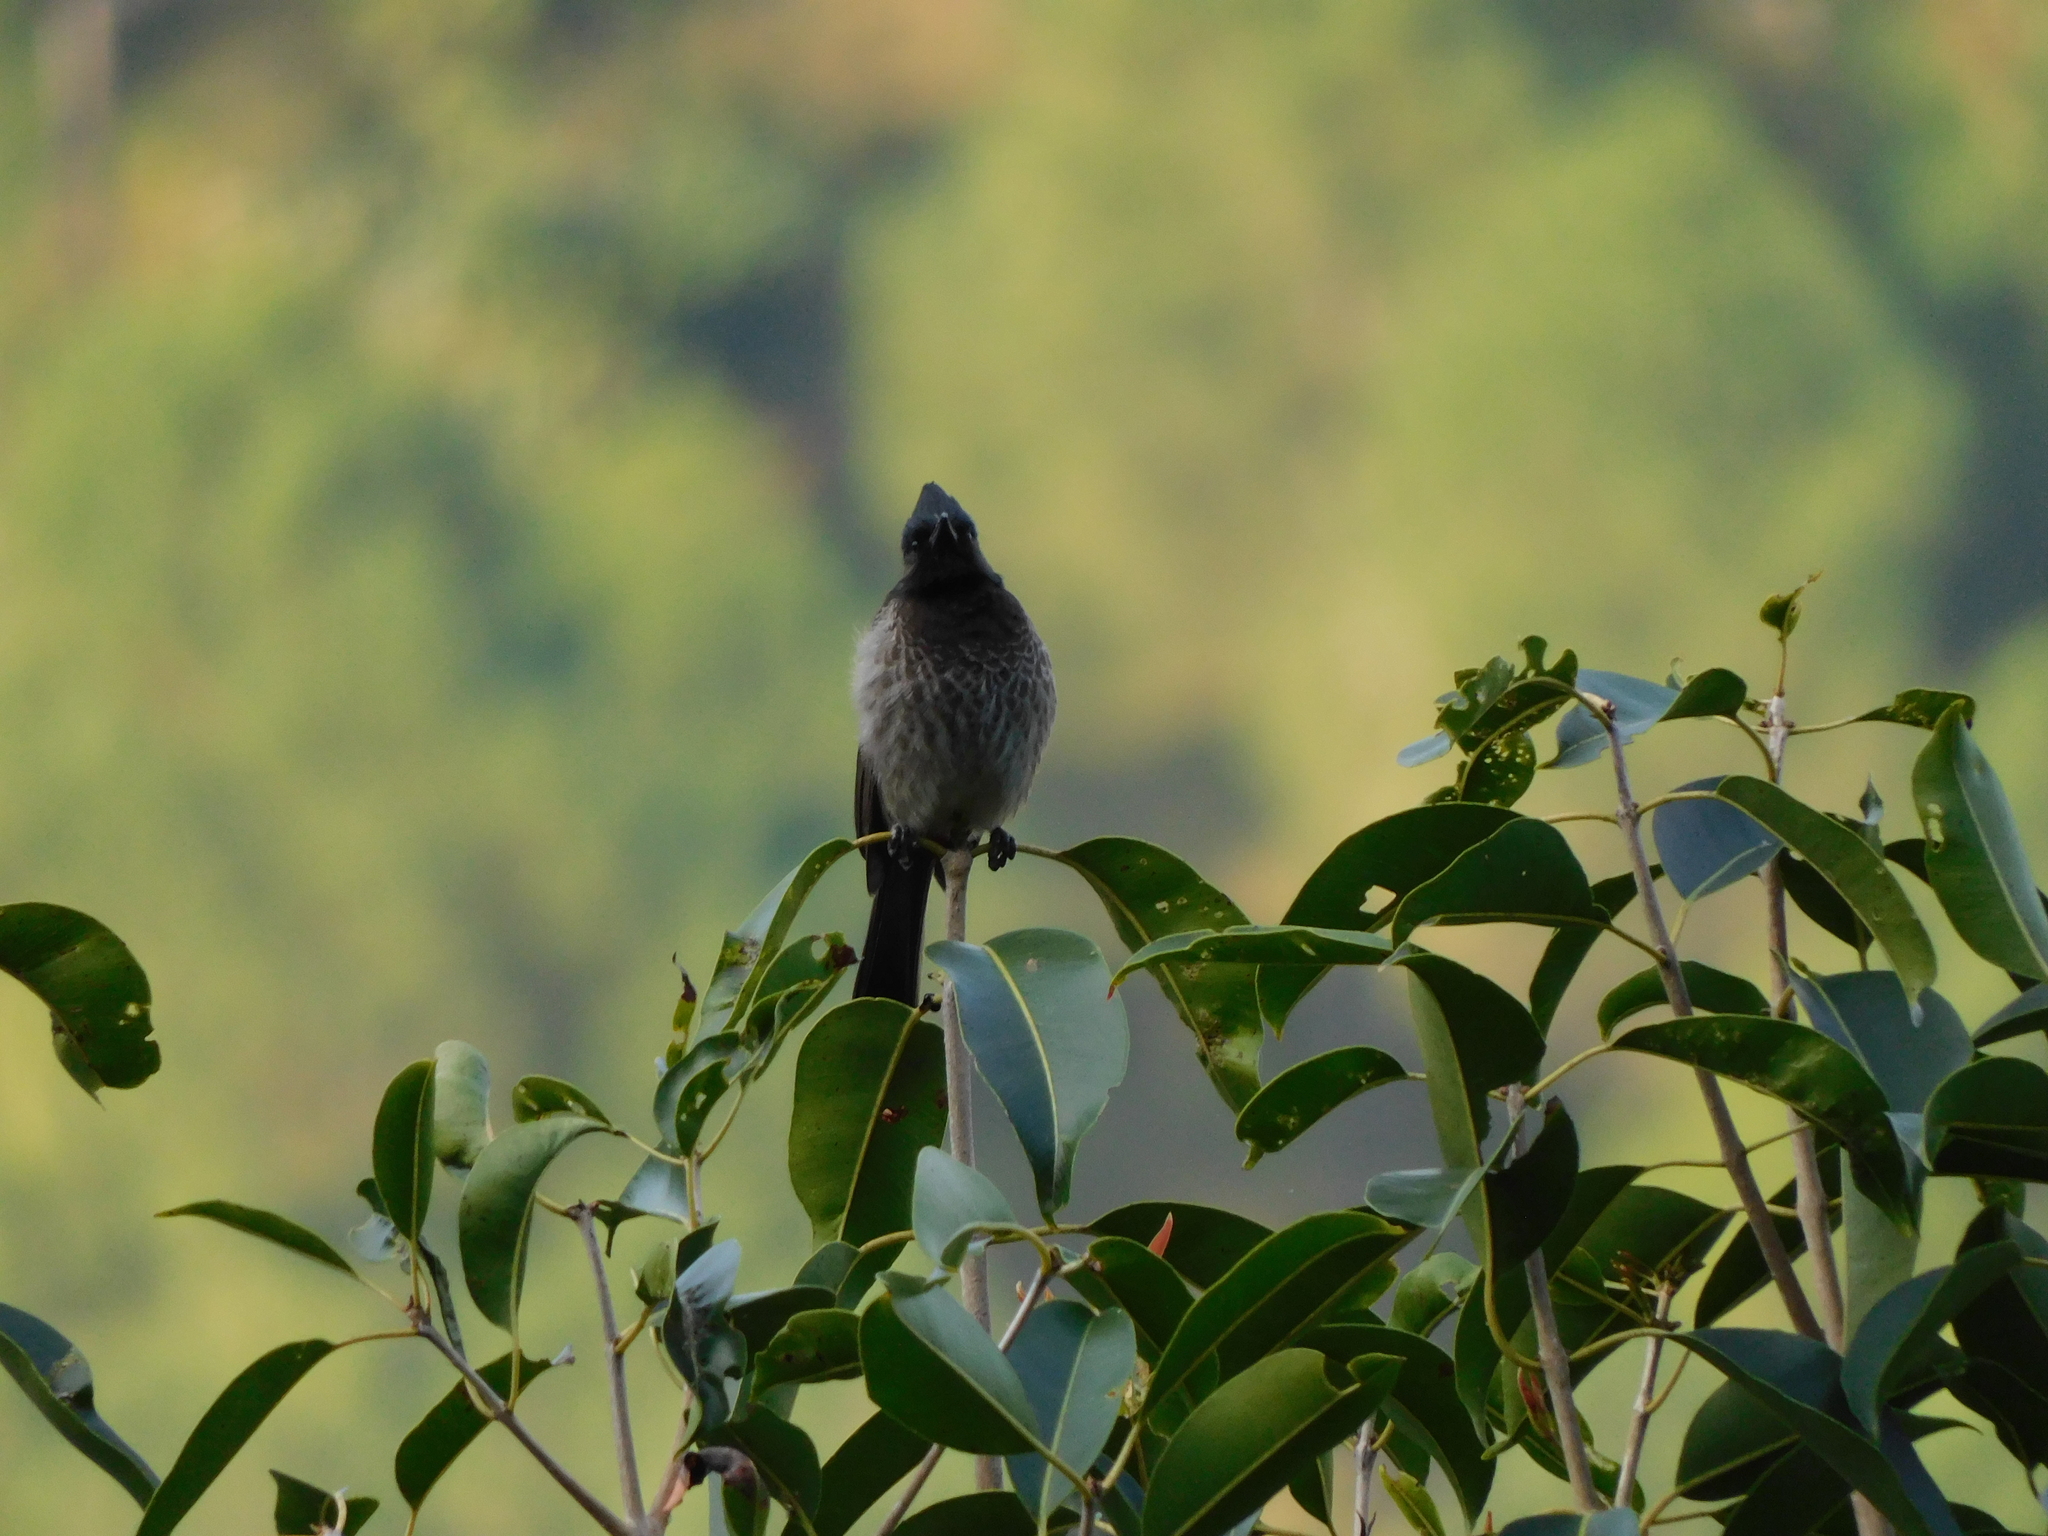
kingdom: Animalia
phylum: Chordata
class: Aves
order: Passeriformes
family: Pycnonotidae
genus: Pycnonotus
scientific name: Pycnonotus cafer
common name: Red-vented bulbul
